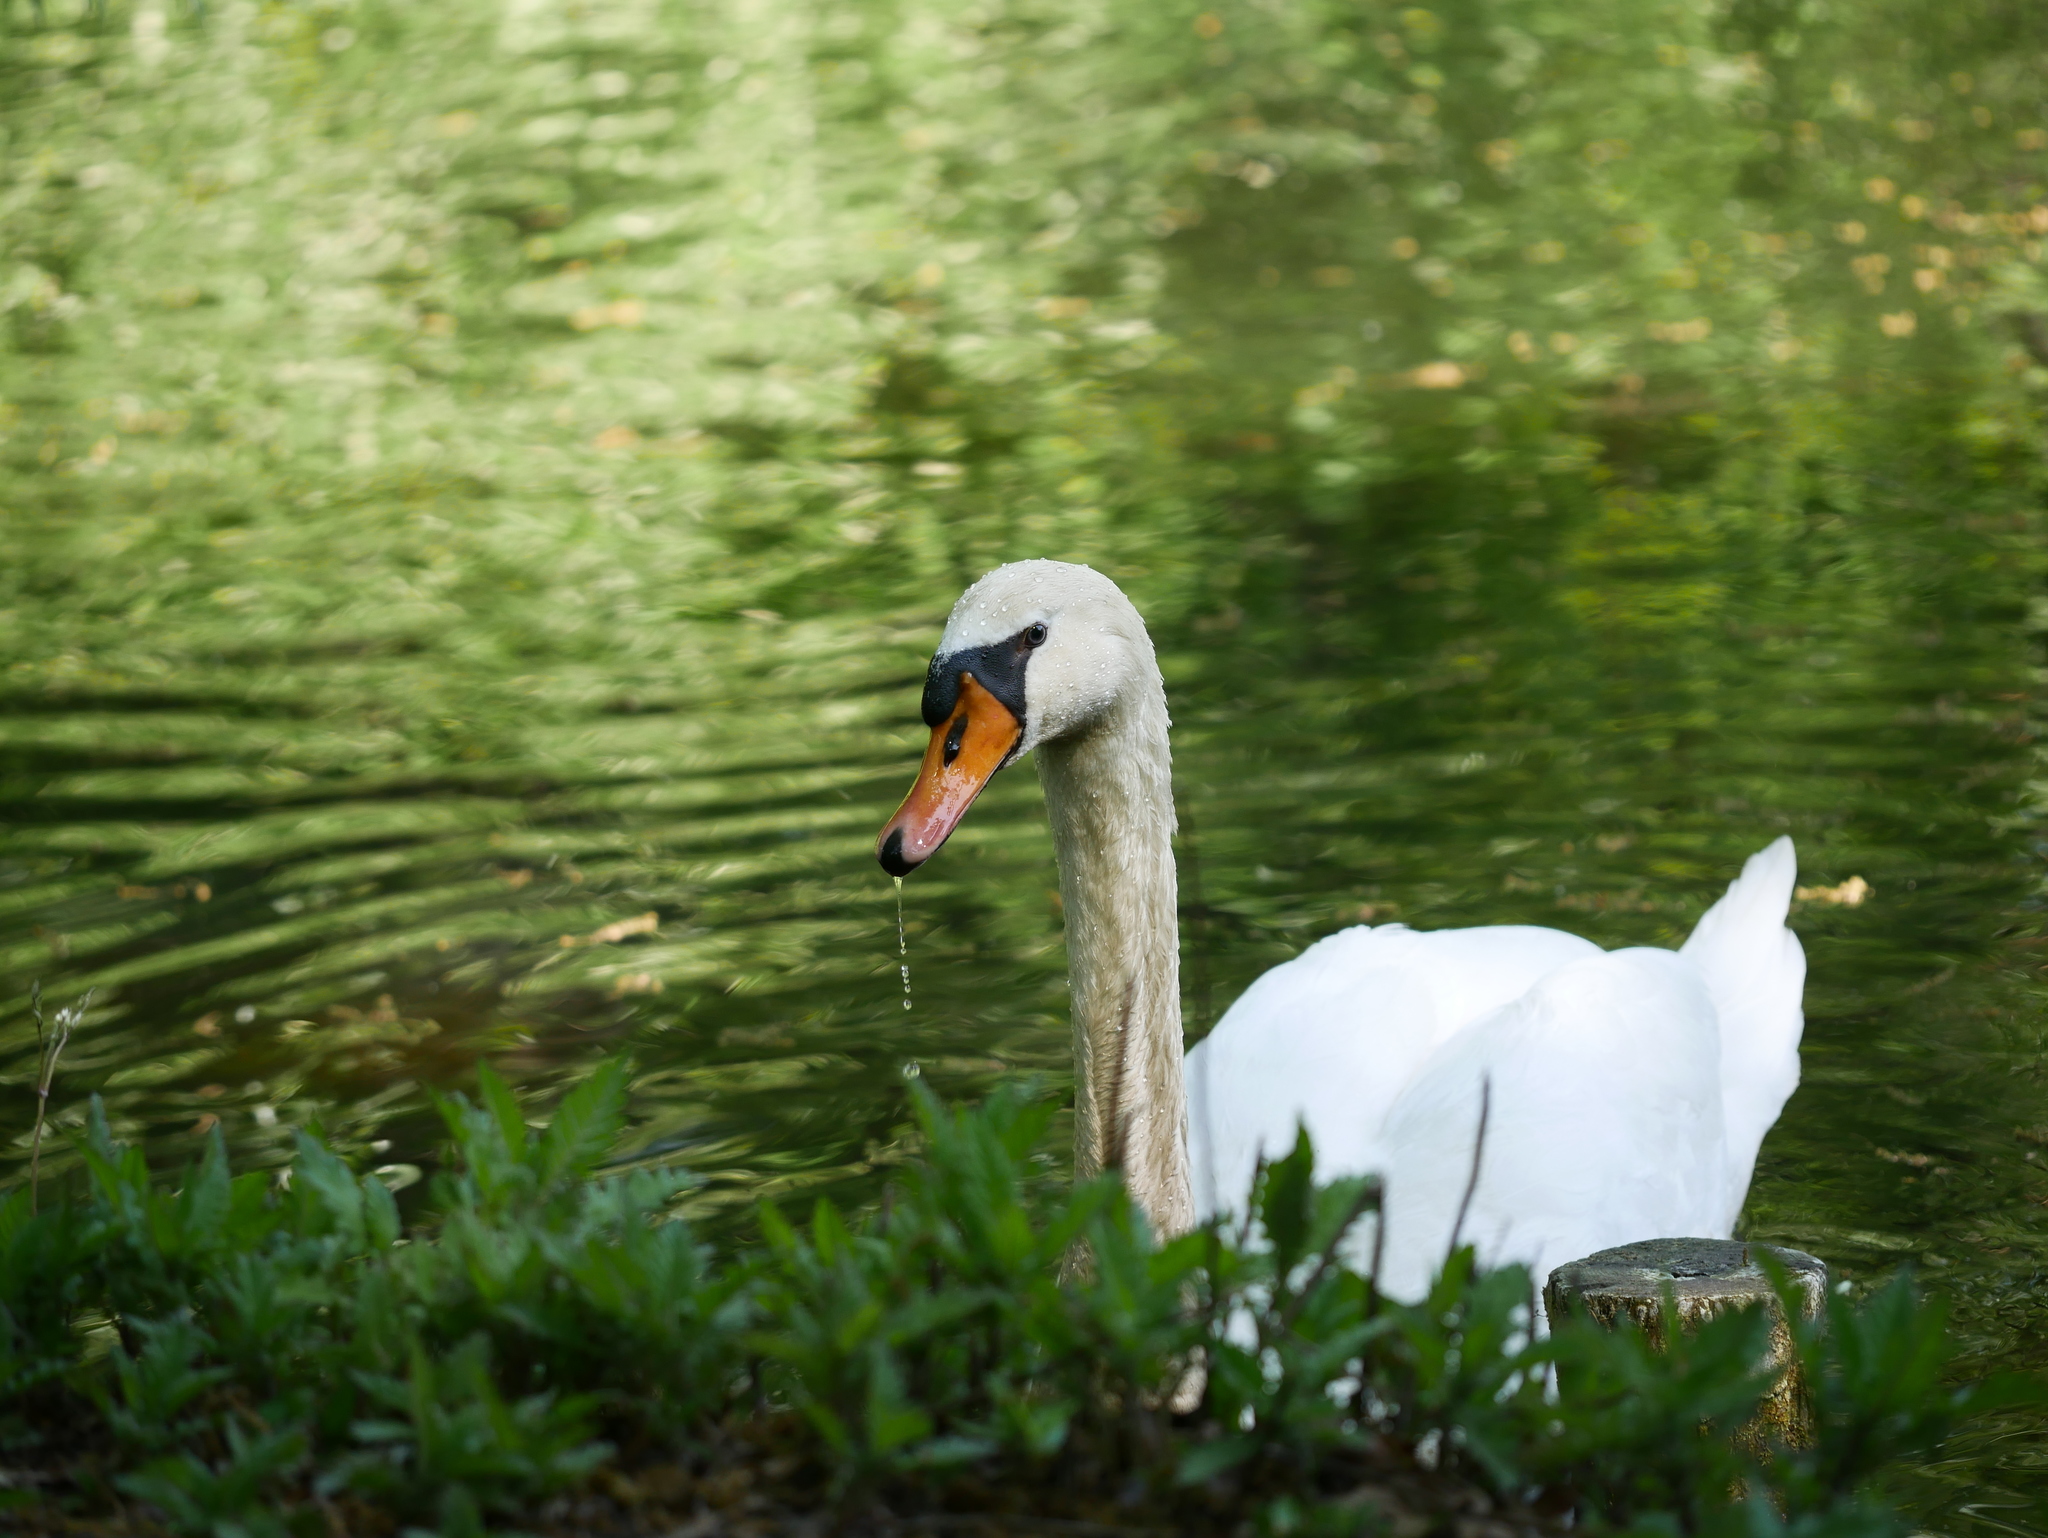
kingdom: Animalia
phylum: Chordata
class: Aves
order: Anseriformes
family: Anatidae
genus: Cygnus
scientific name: Cygnus olor
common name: Mute swan
